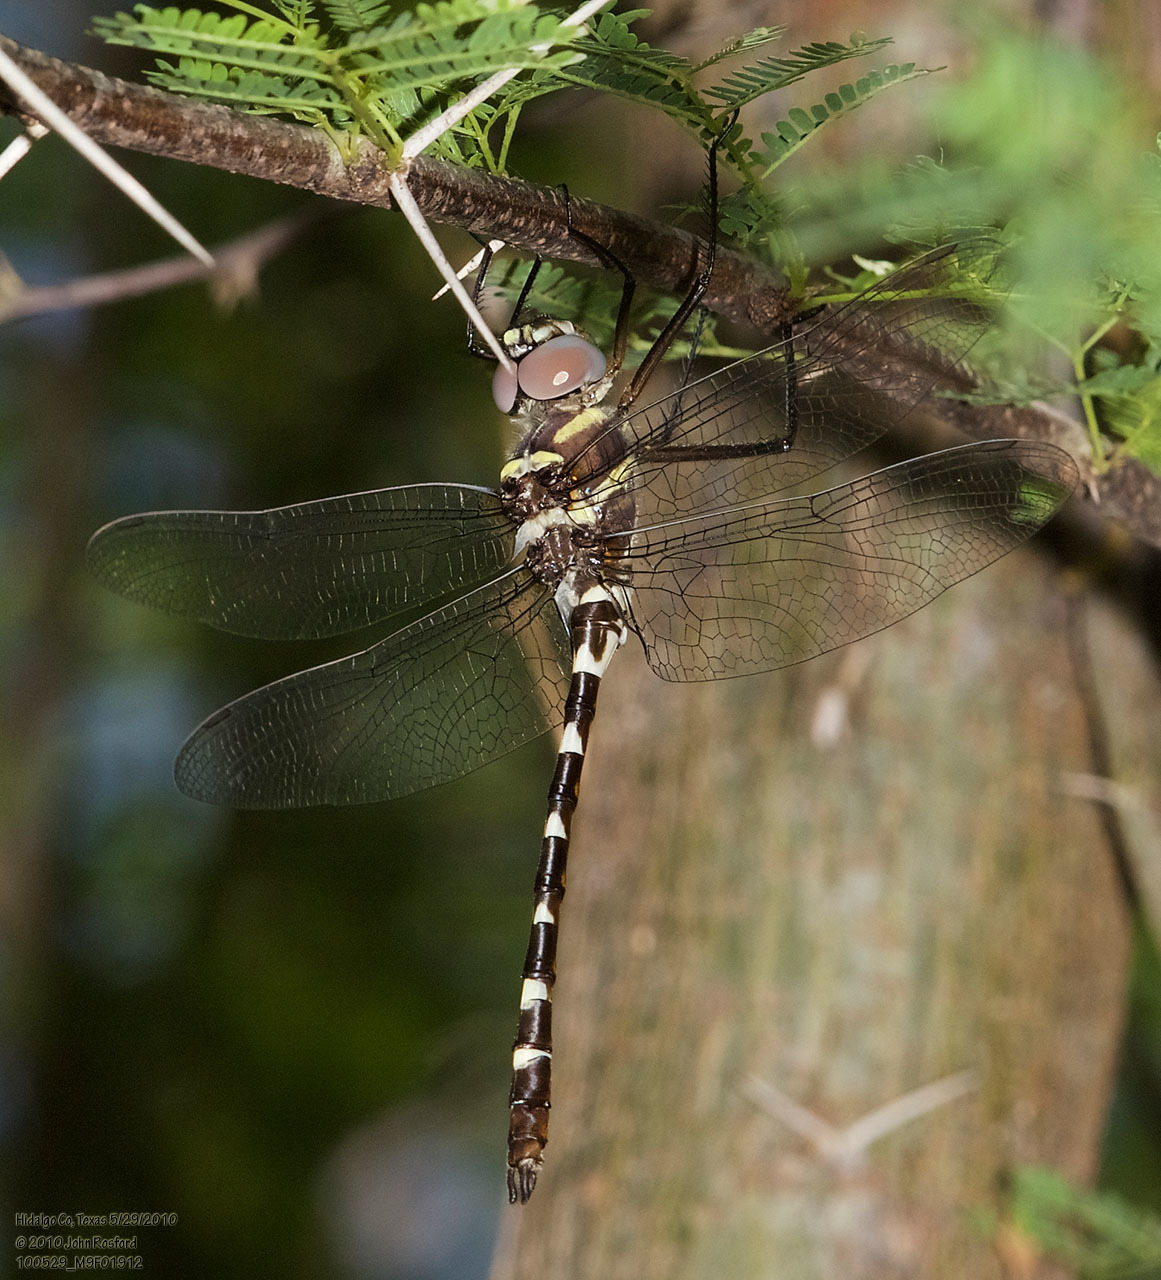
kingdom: Animalia
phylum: Arthropoda
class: Insecta
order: Odonata
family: Macromiidae
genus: Macromia
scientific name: Macromia annulata
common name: Bronzed river cruiser
